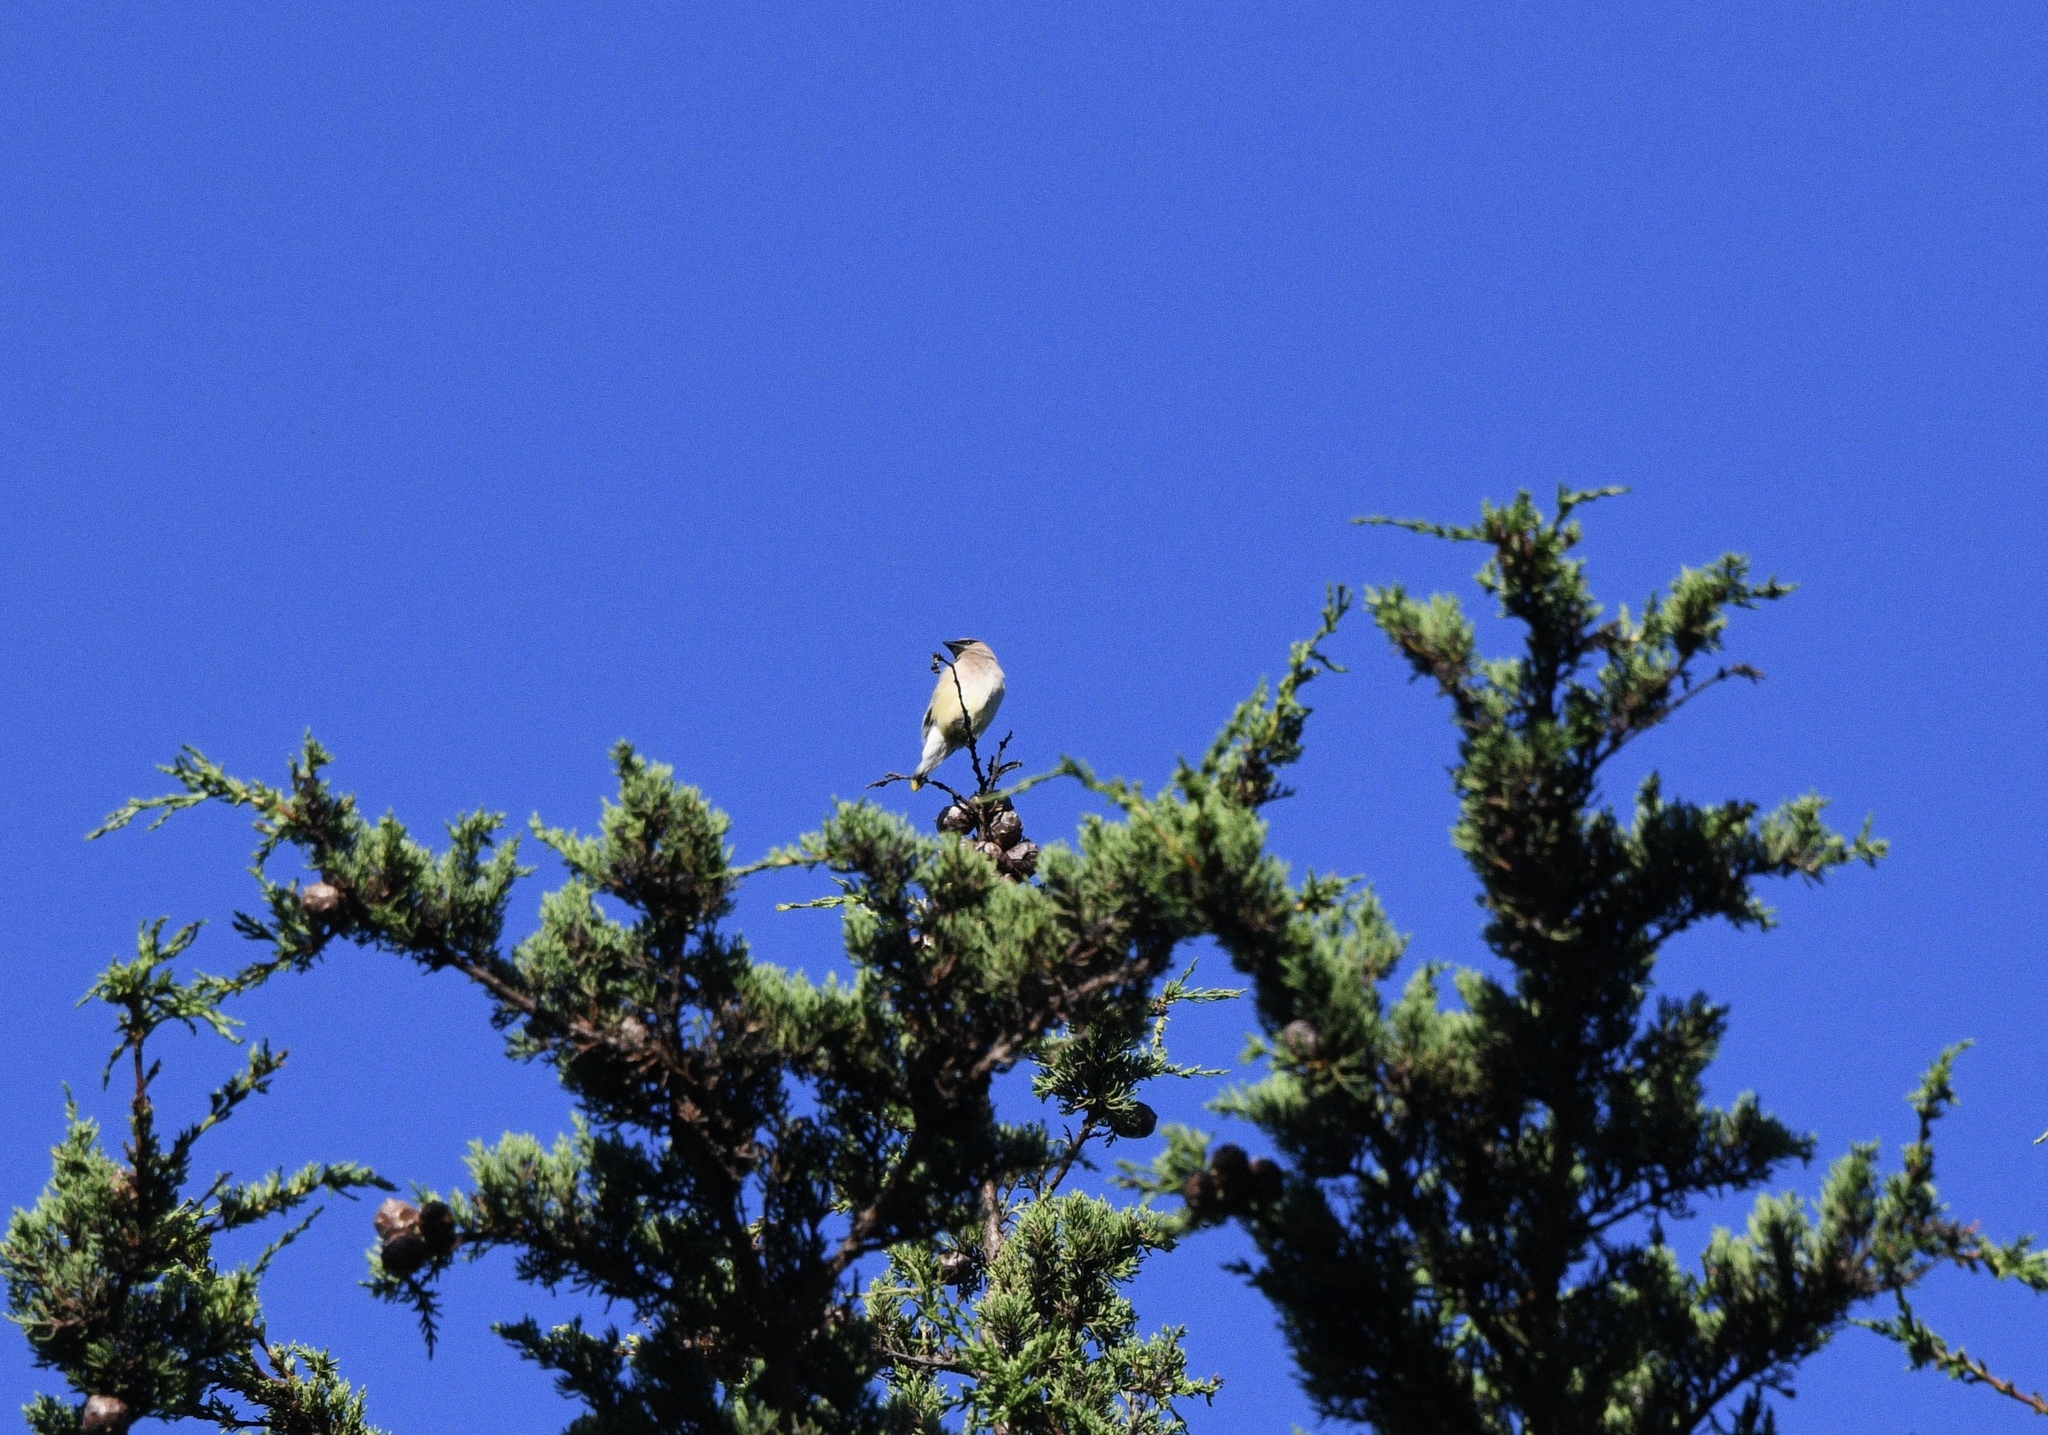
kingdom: Animalia
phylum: Chordata
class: Aves
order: Passeriformes
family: Bombycillidae
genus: Bombycilla
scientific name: Bombycilla cedrorum
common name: Cedar waxwing
